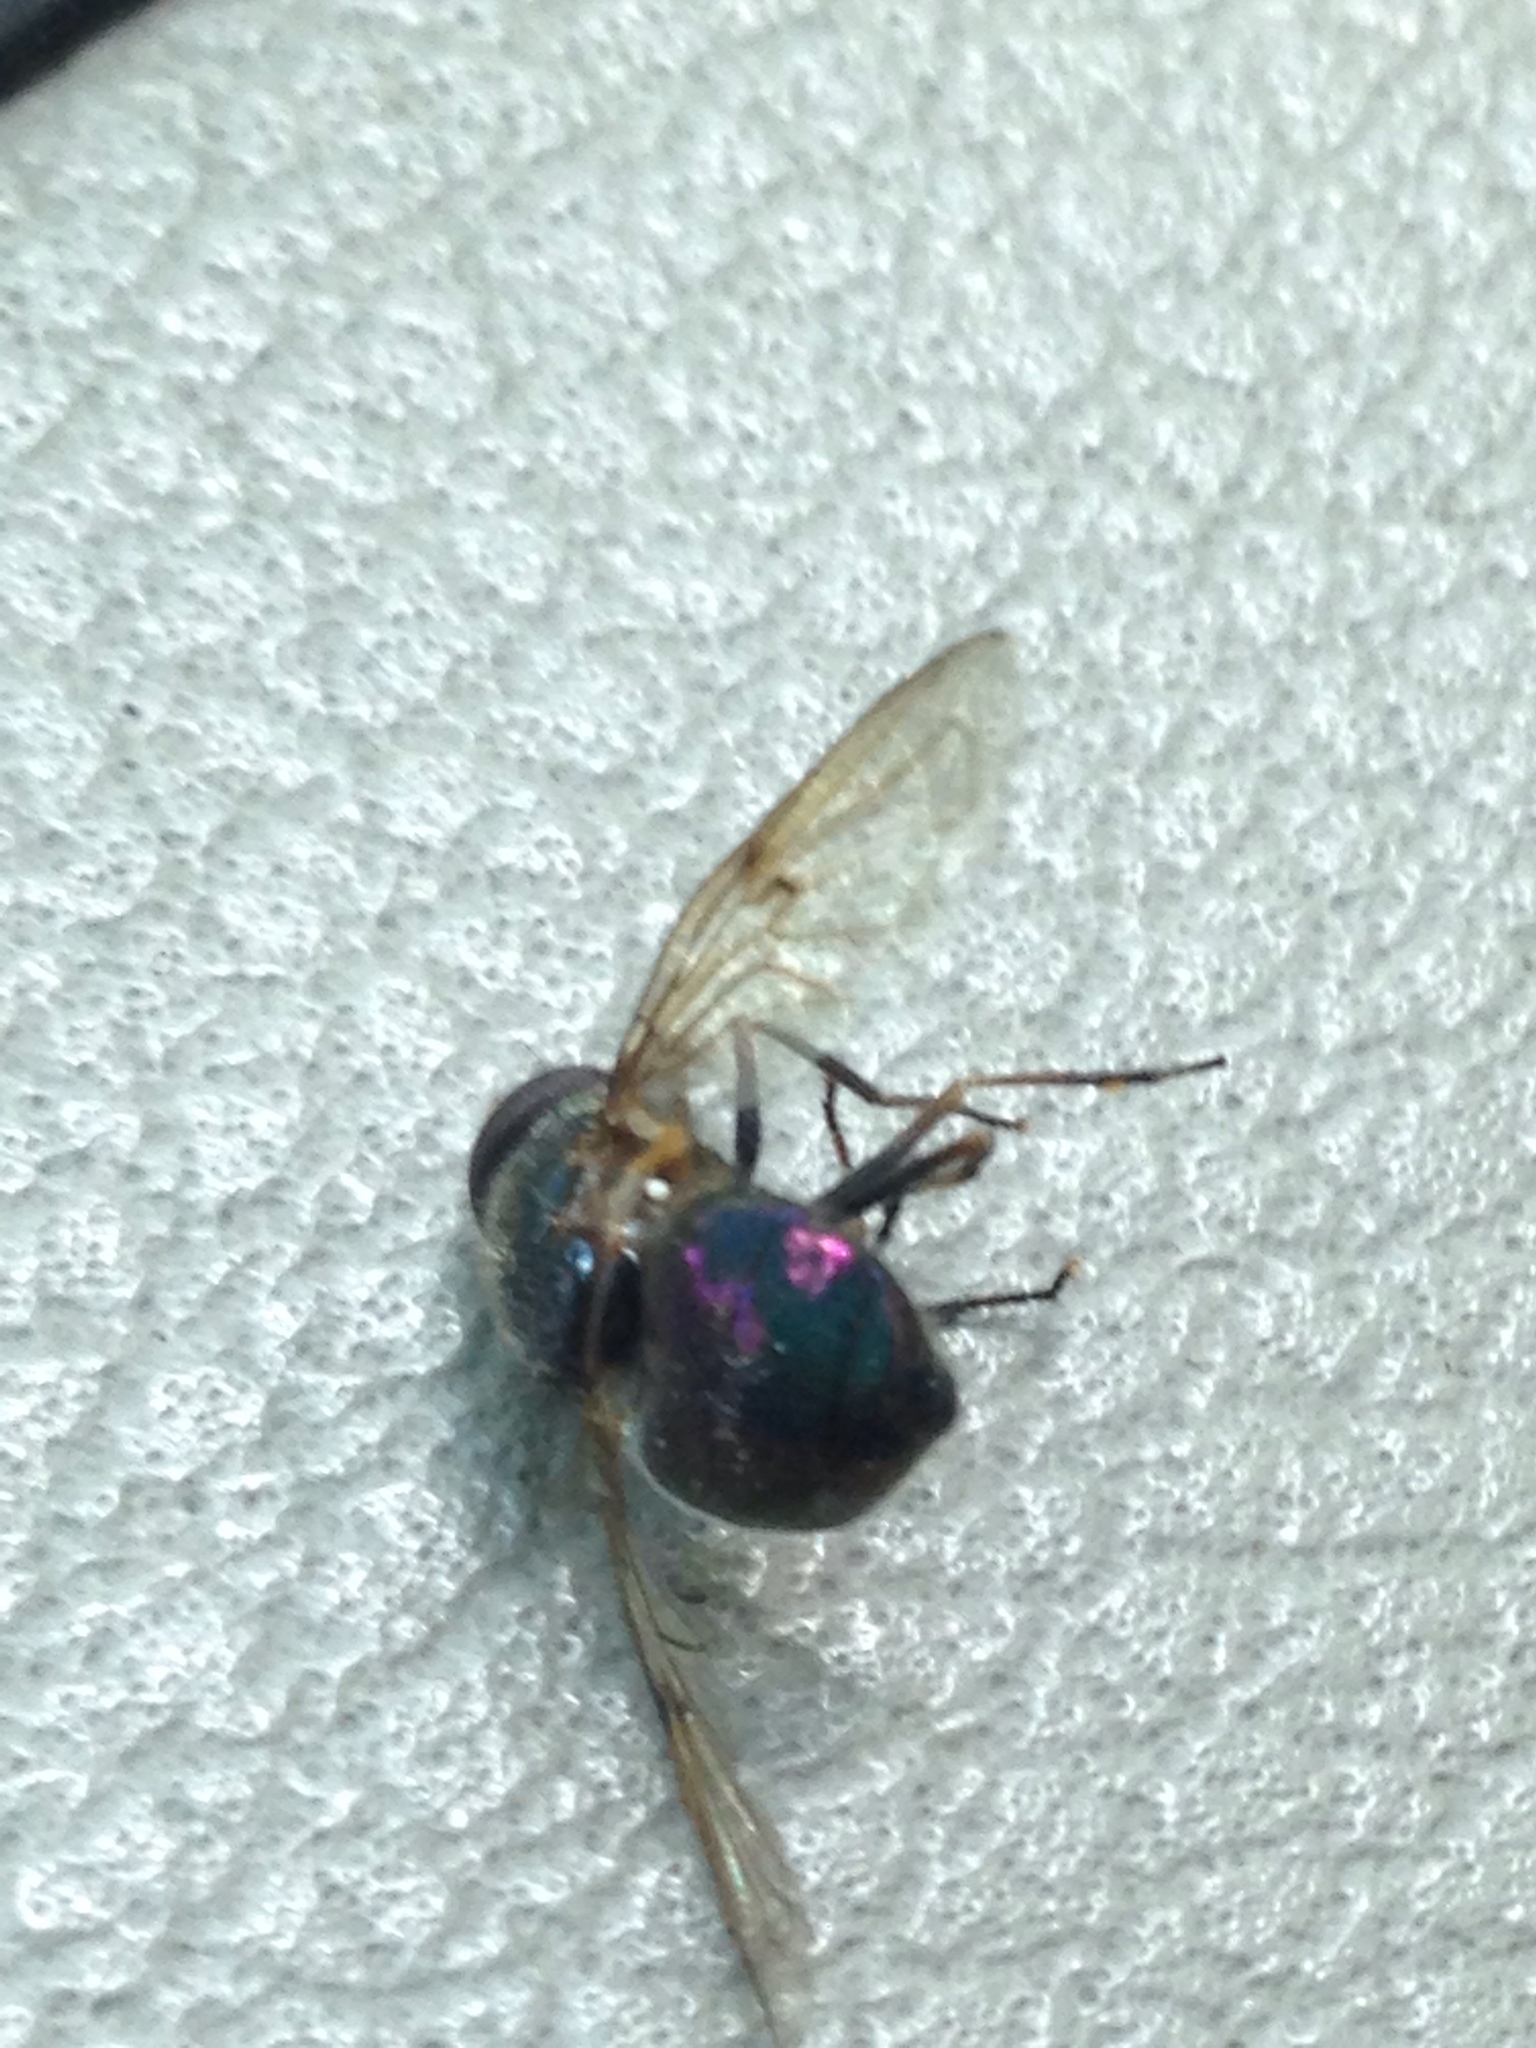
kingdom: Animalia
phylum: Arthropoda
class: Insecta
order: Diptera
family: Syrphidae
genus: Copestylum
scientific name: Copestylum vesicularium
